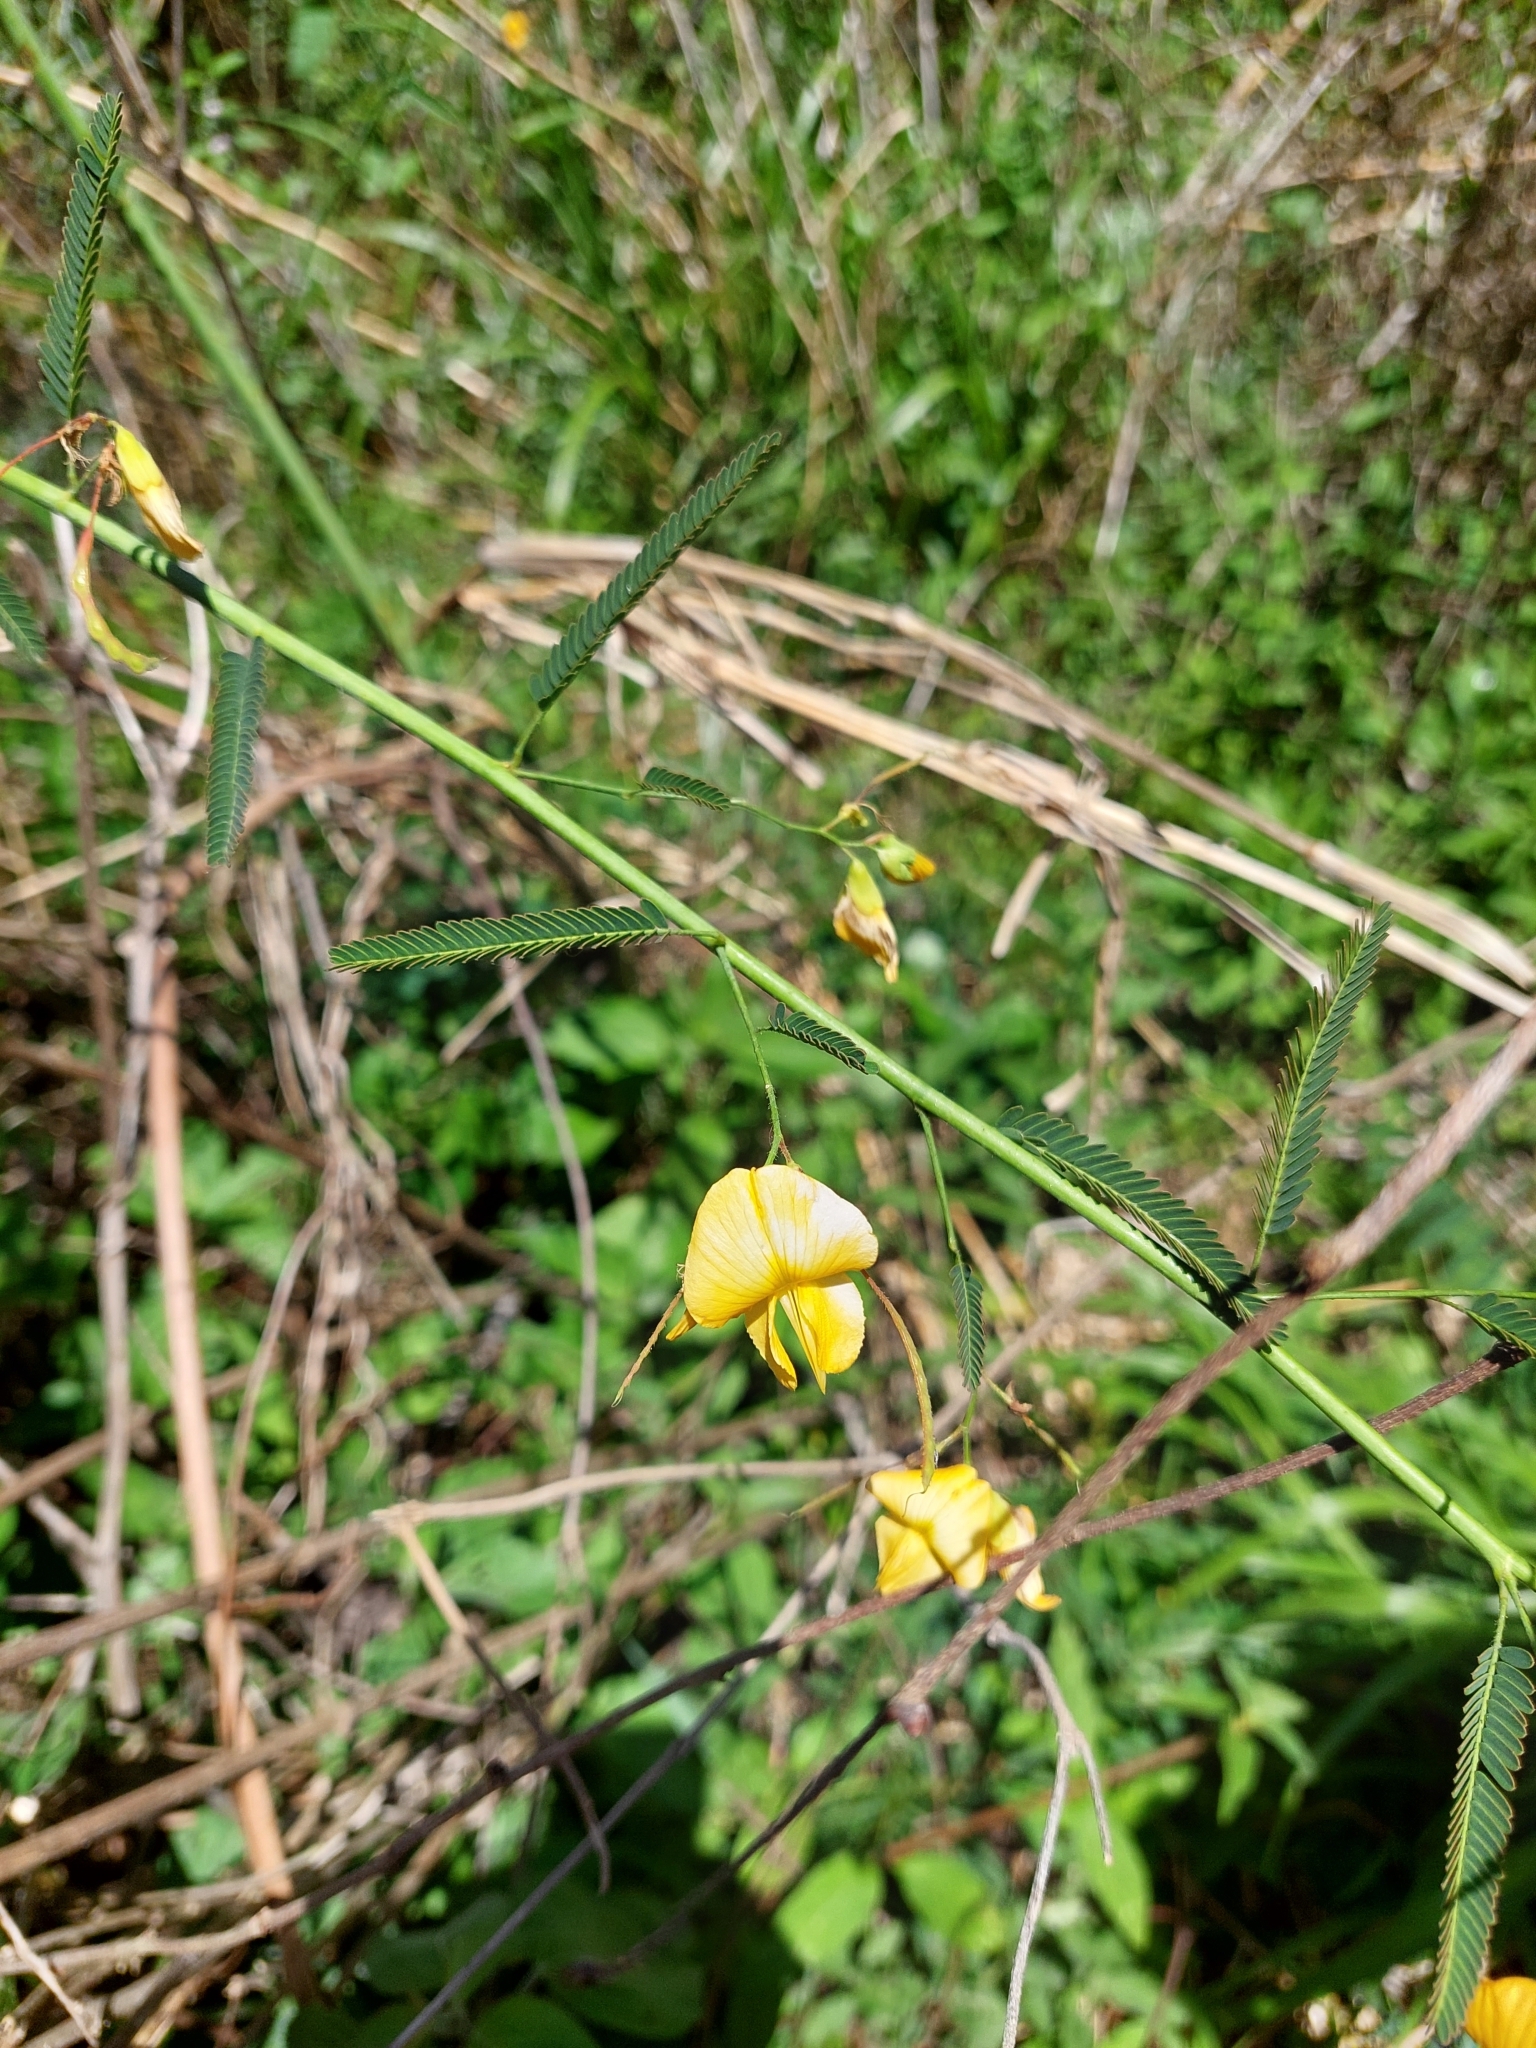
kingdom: Plantae
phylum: Tracheophyta
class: Magnoliopsida
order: Fabales
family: Fabaceae
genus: Aeschynomene
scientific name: Aeschynomene montevidensis
